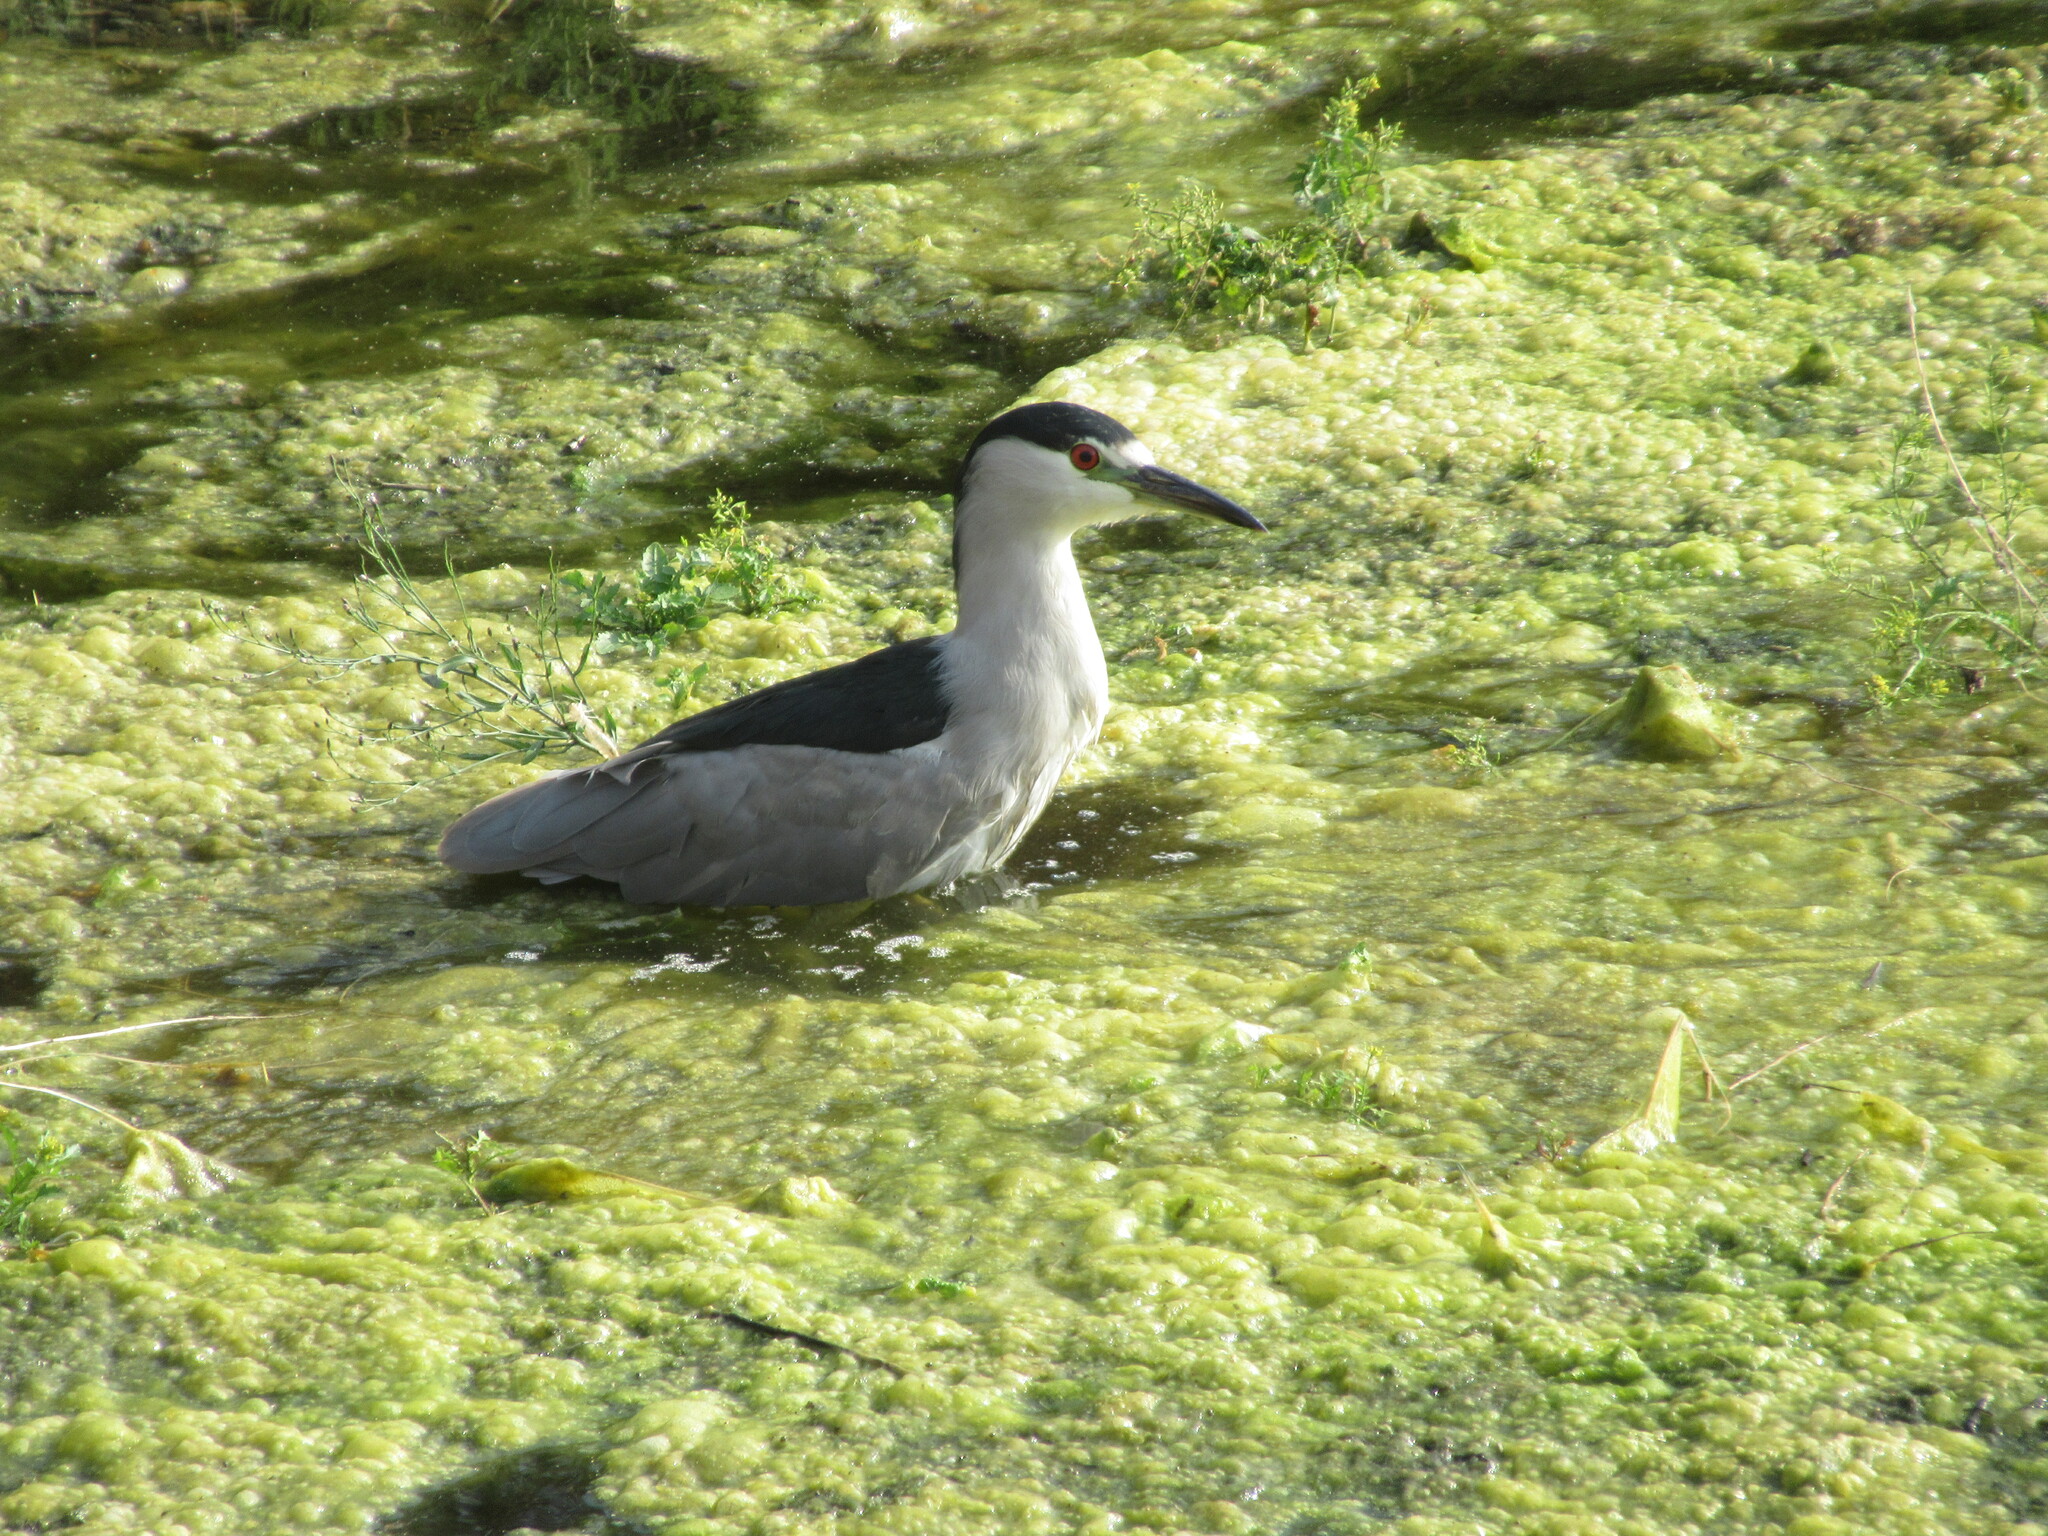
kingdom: Animalia
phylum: Chordata
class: Aves
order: Pelecaniformes
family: Ardeidae
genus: Nycticorax
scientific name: Nycticorax nycticorax
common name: Black-crowned night heron
